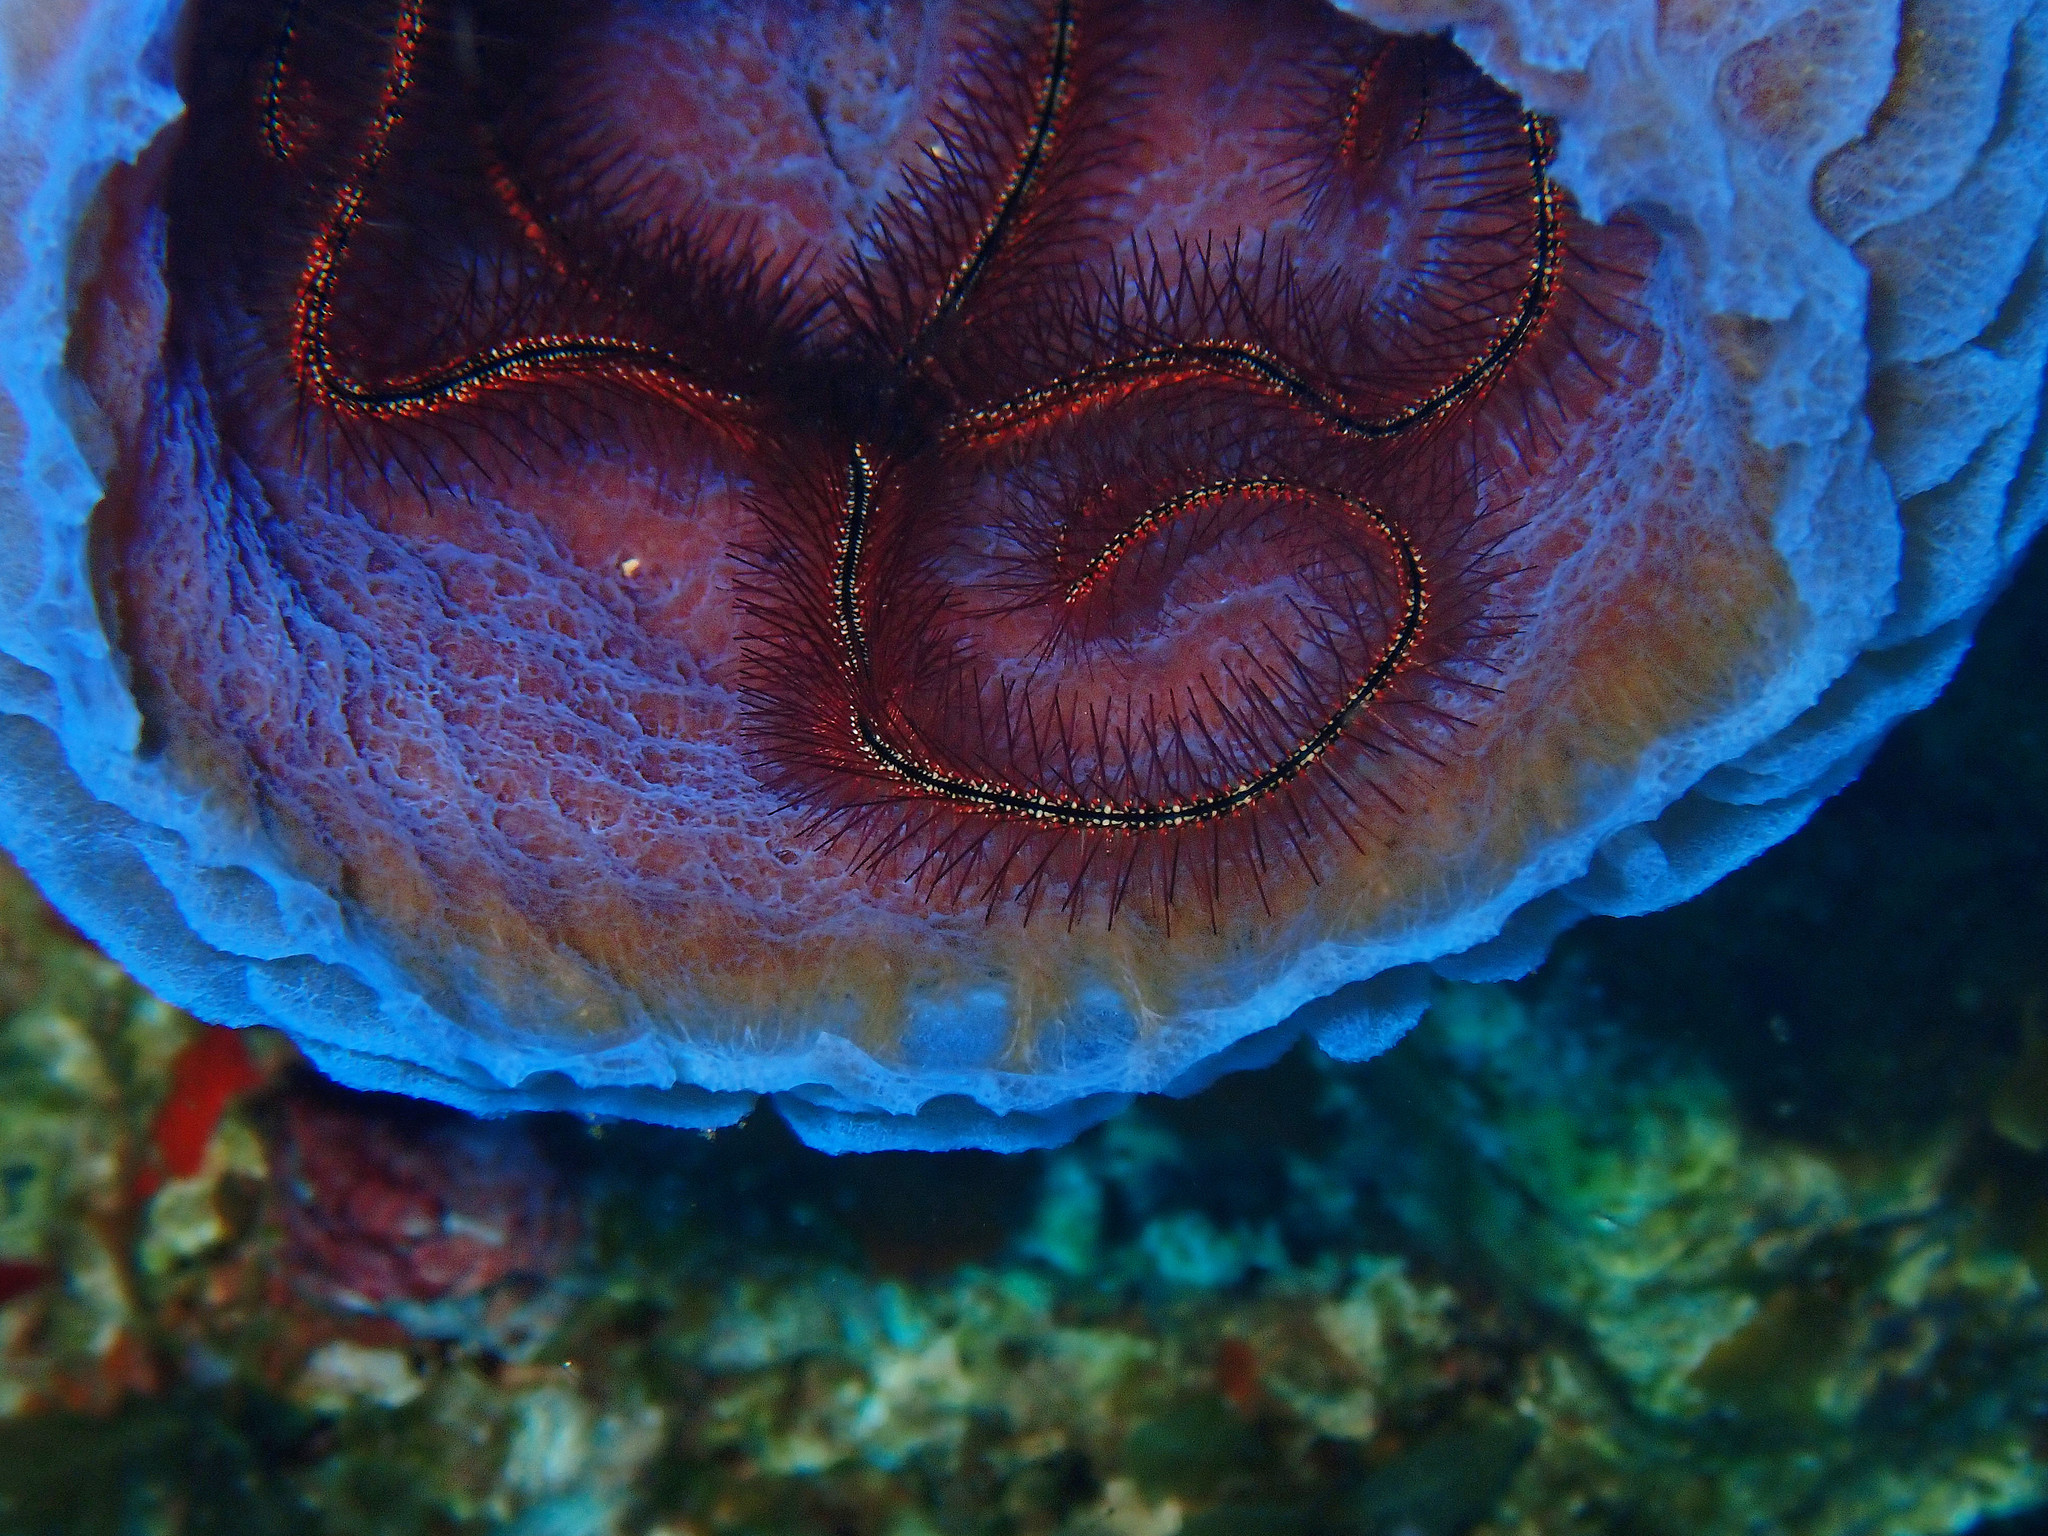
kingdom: Animalia
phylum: Echinodermata
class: Ophiuroidea
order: Amphilepidida
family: Ophiotrichidae
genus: Ophiothrix
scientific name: Ophiothrix suensonii
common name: Sponge brittle star
